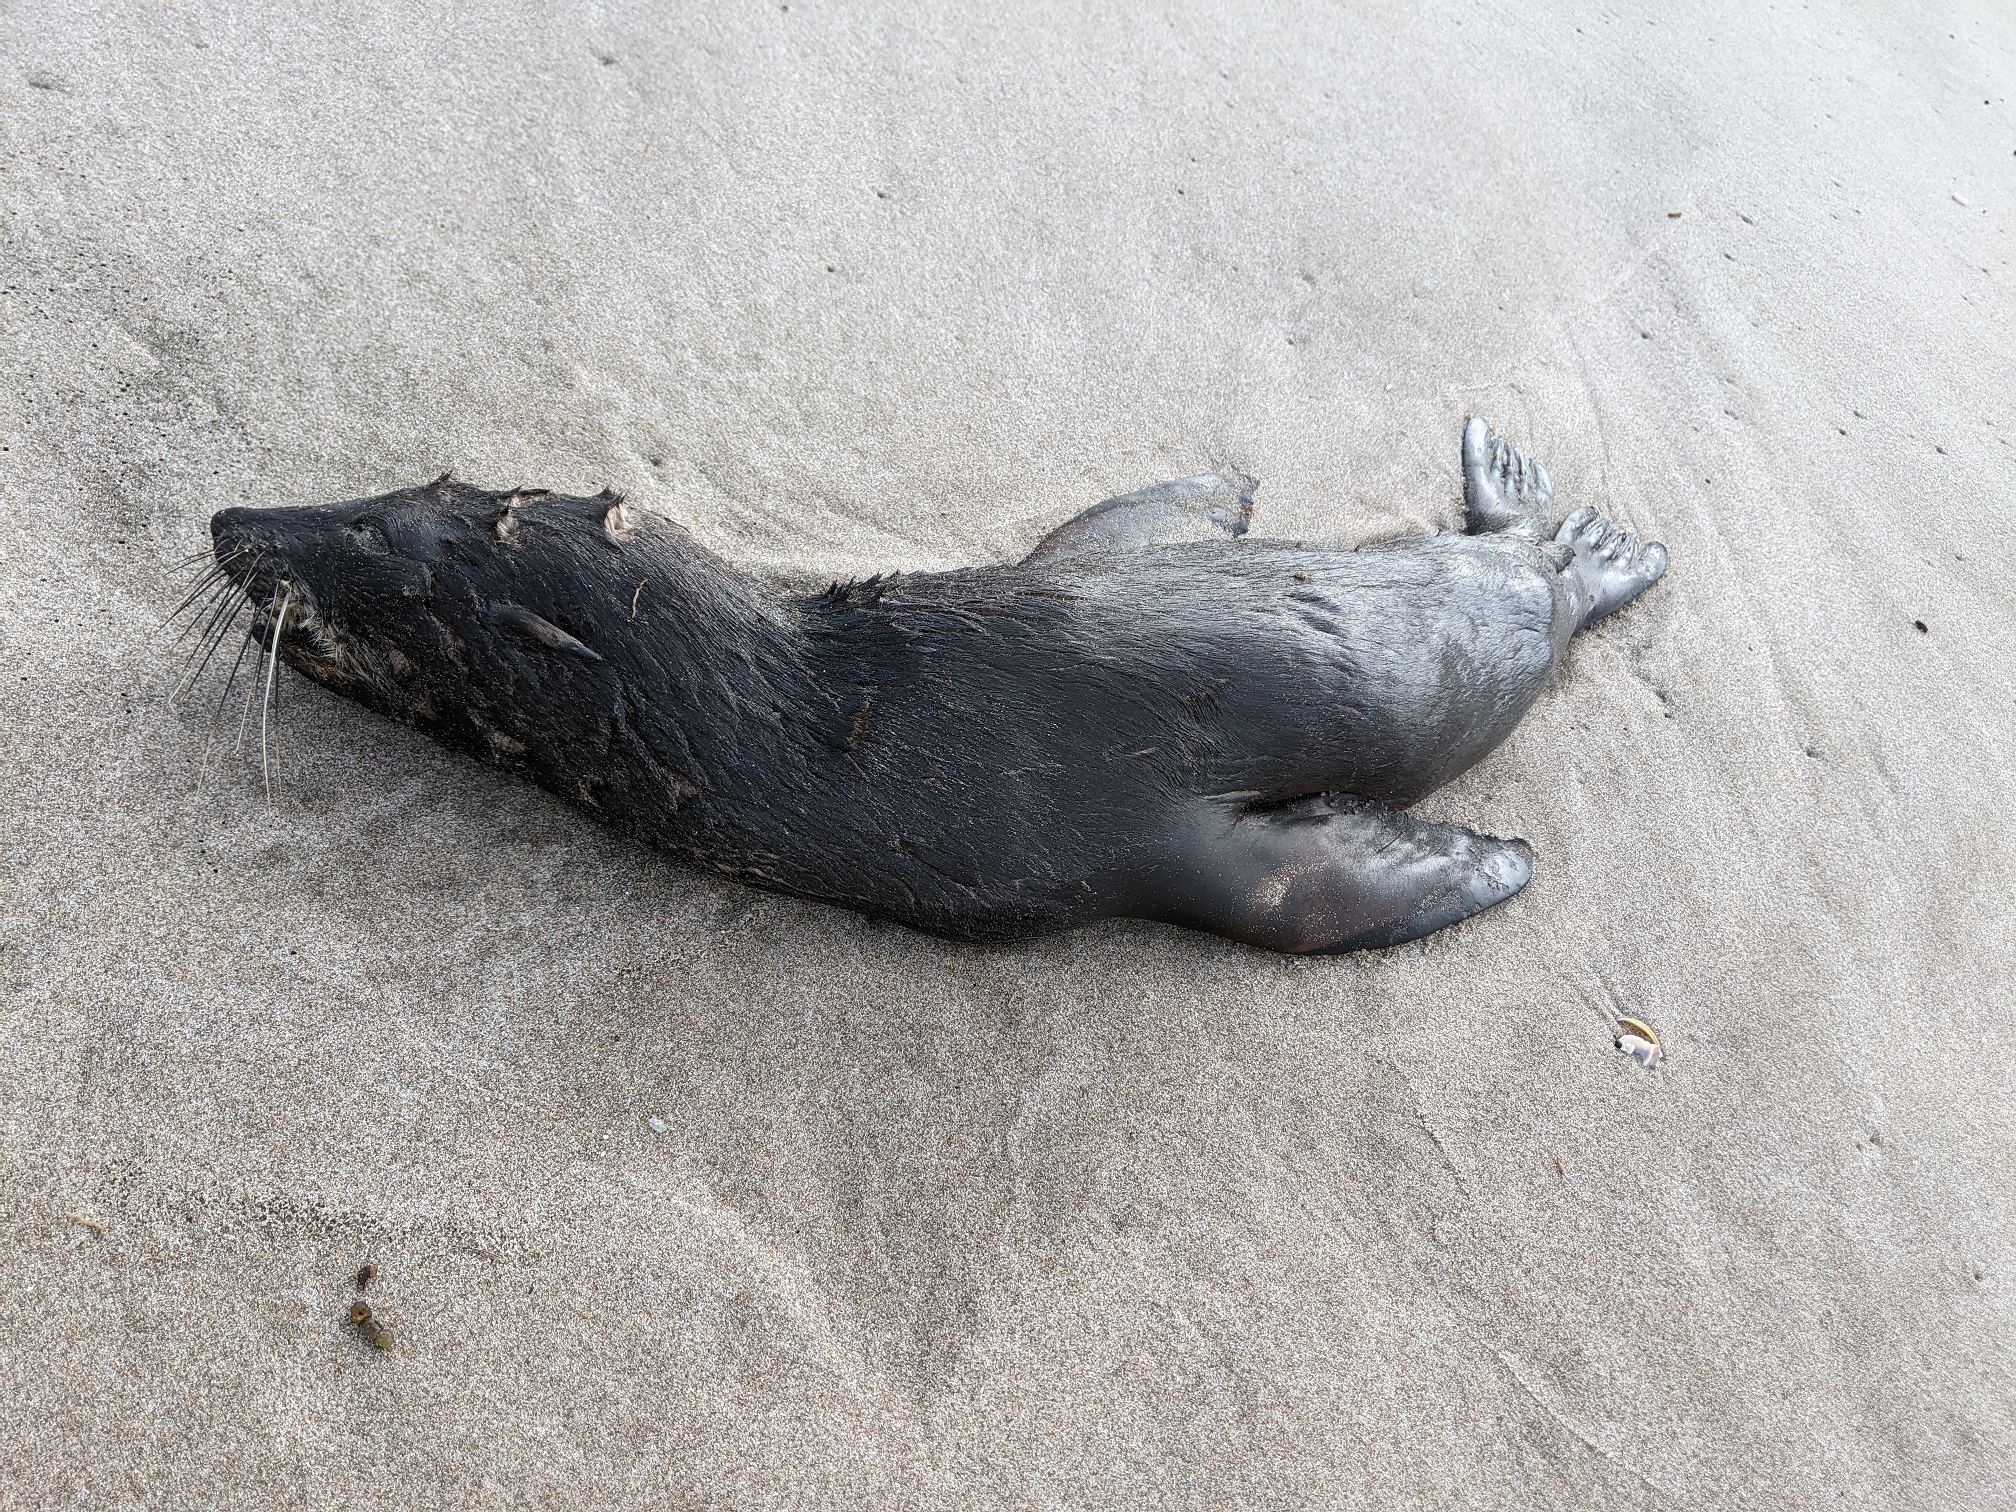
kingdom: Animalia
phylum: Chordata
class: Mammalia
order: Carnivora
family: Otariidae
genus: Arctocephalus
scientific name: Arctocephalus forsteri
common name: New zealand fur seal
